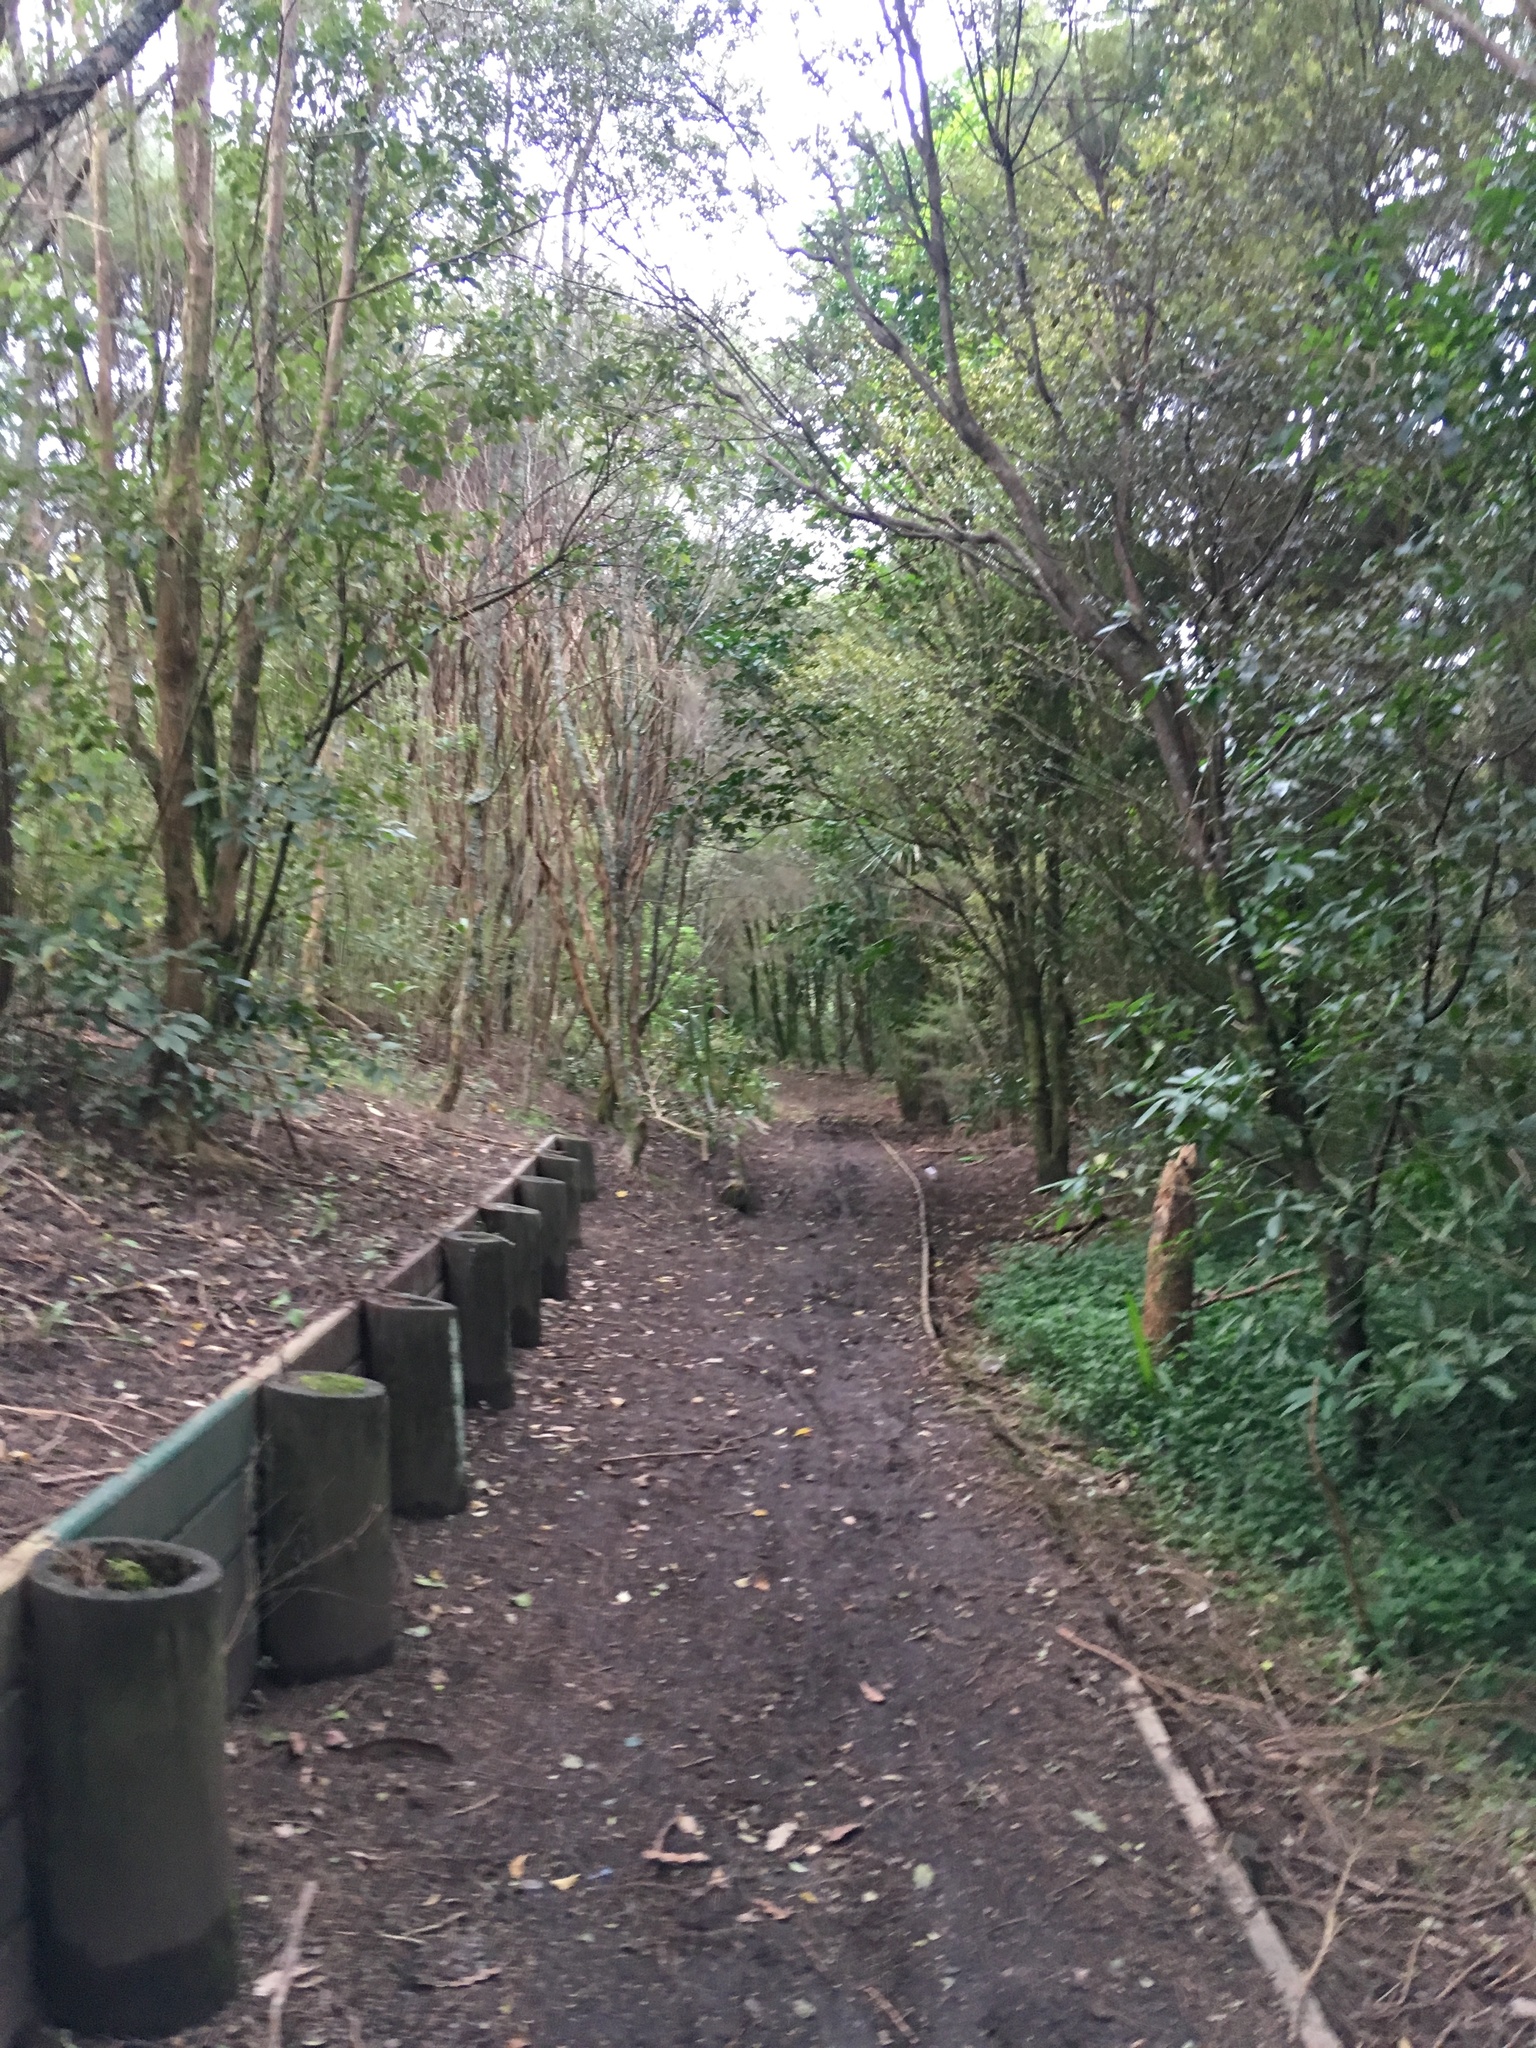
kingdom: Plantae
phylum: Tracheophyta
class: Liliopsida
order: Commelinales
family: Commelinaceae
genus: Tradescantia
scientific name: Tradescantia fluminensis
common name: Wandering-jew
